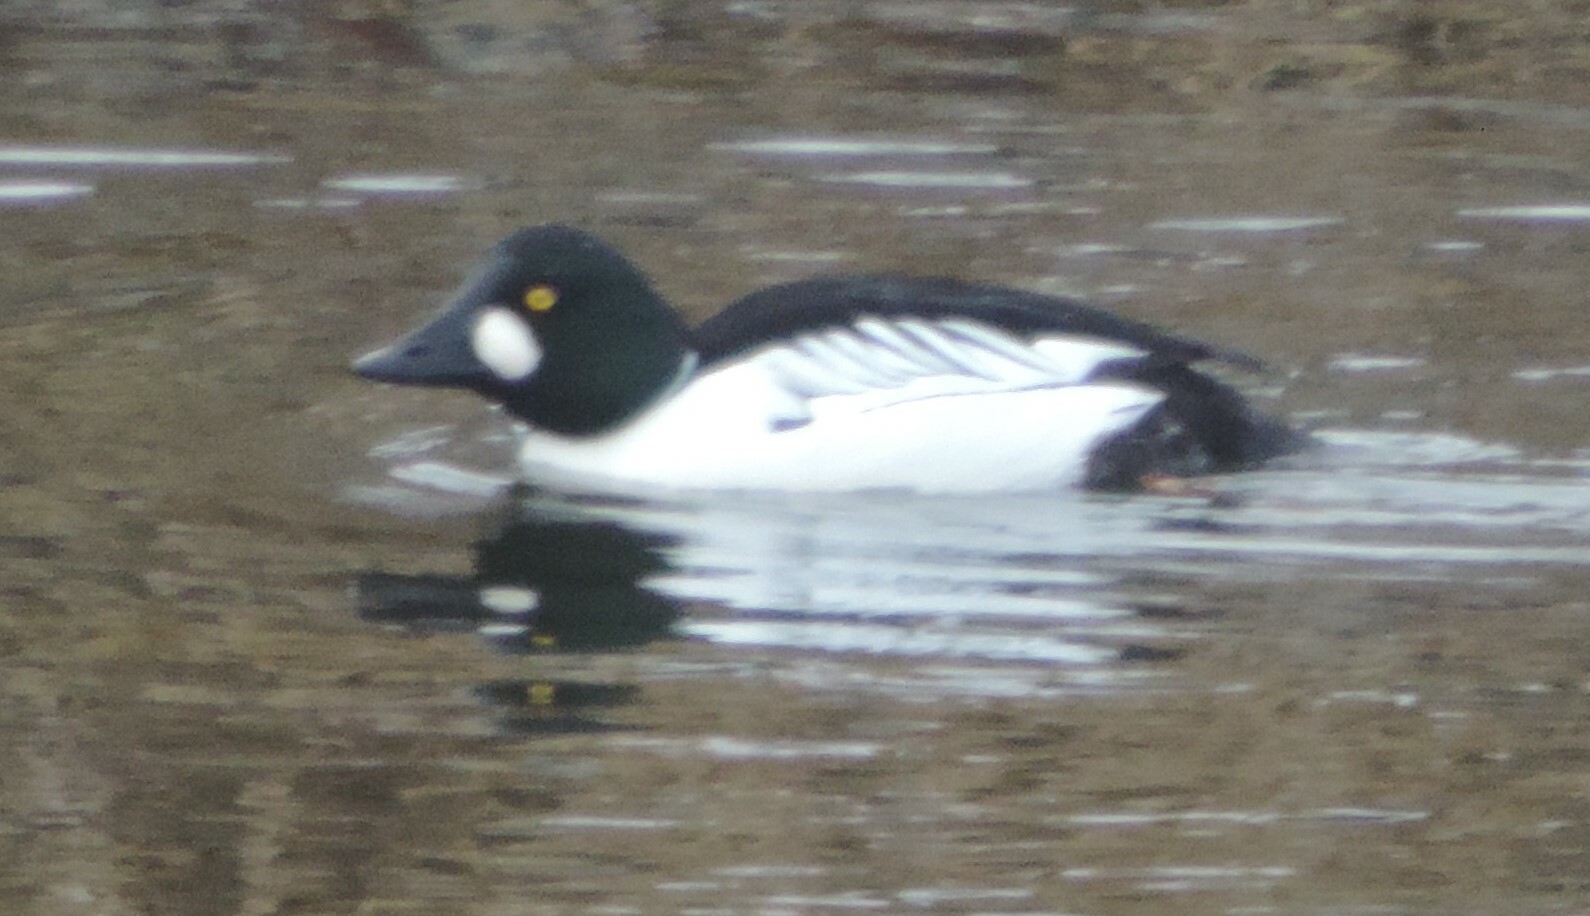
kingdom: Animalia
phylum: Chordata
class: Aves
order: Anseriformes
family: Anatidae
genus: Bucephala
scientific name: Bucephala clangula
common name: Common goldeneye
